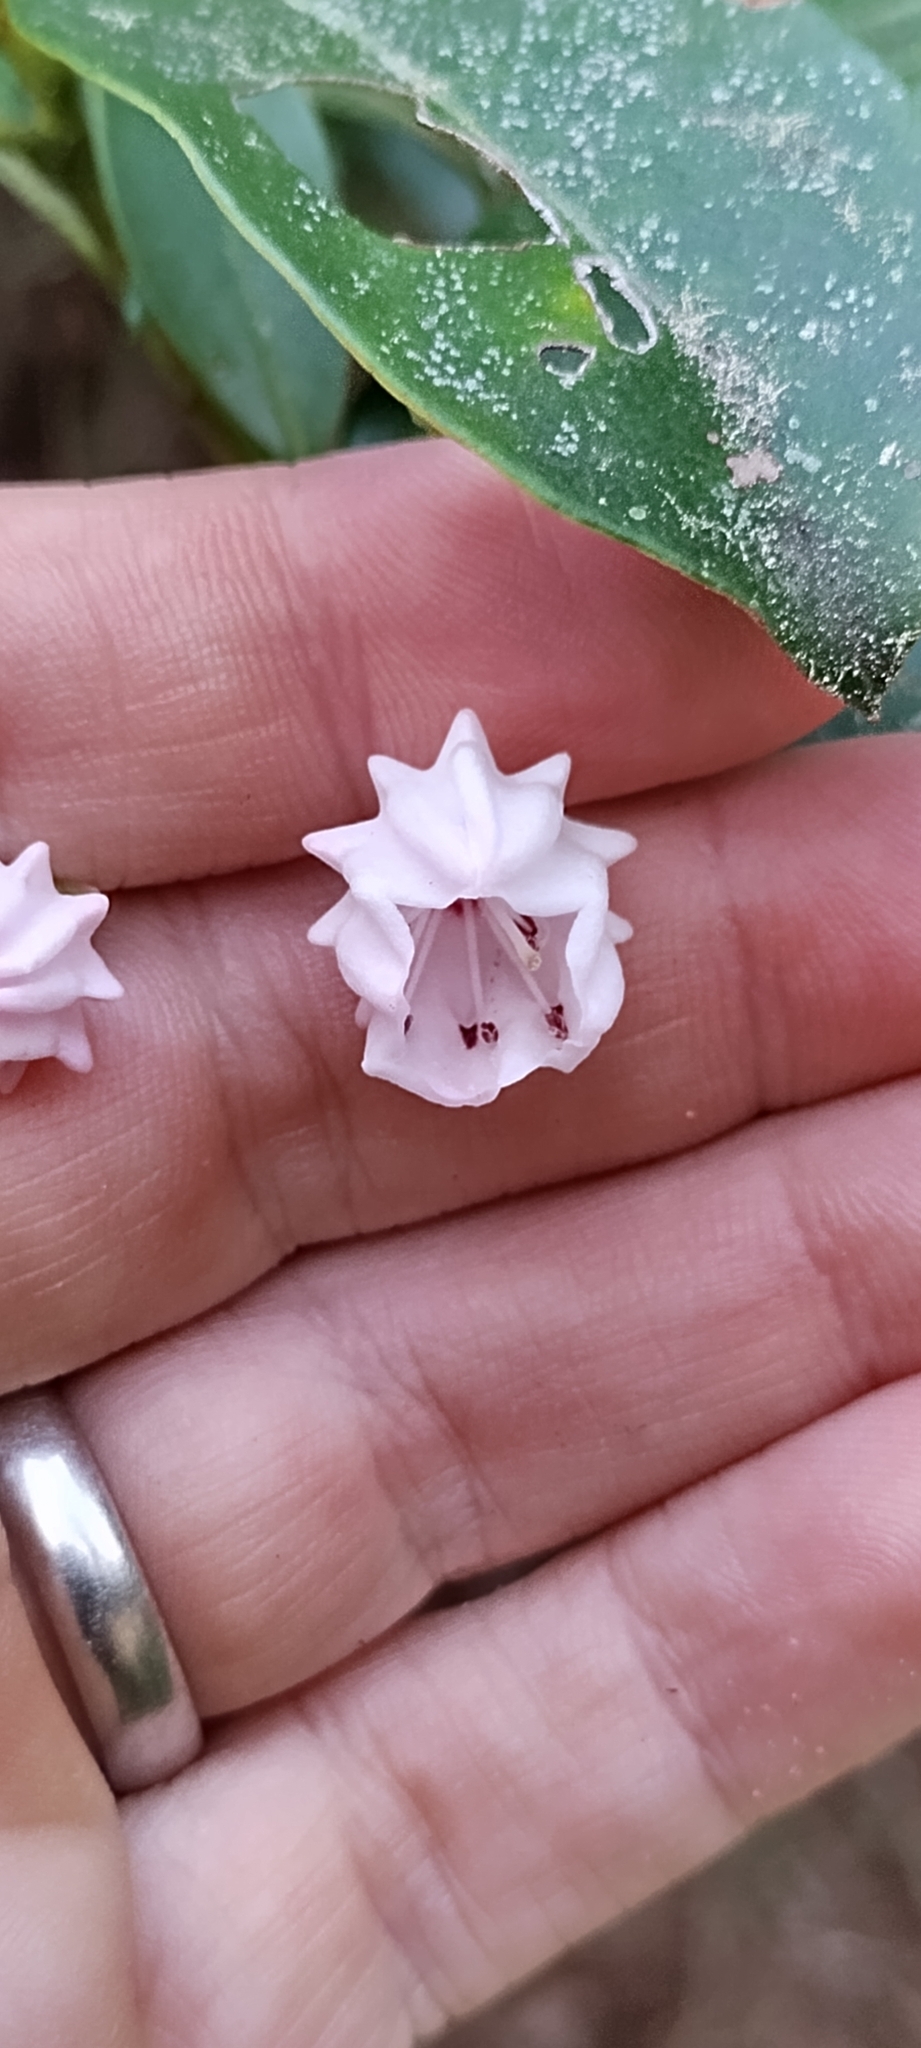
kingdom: Plantae
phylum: Tracheophyta
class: Magnoliopsida
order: Ericales
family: Ericaceae
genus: Kalmia
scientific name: Kalmia latifolia
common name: Mountain-laurel
